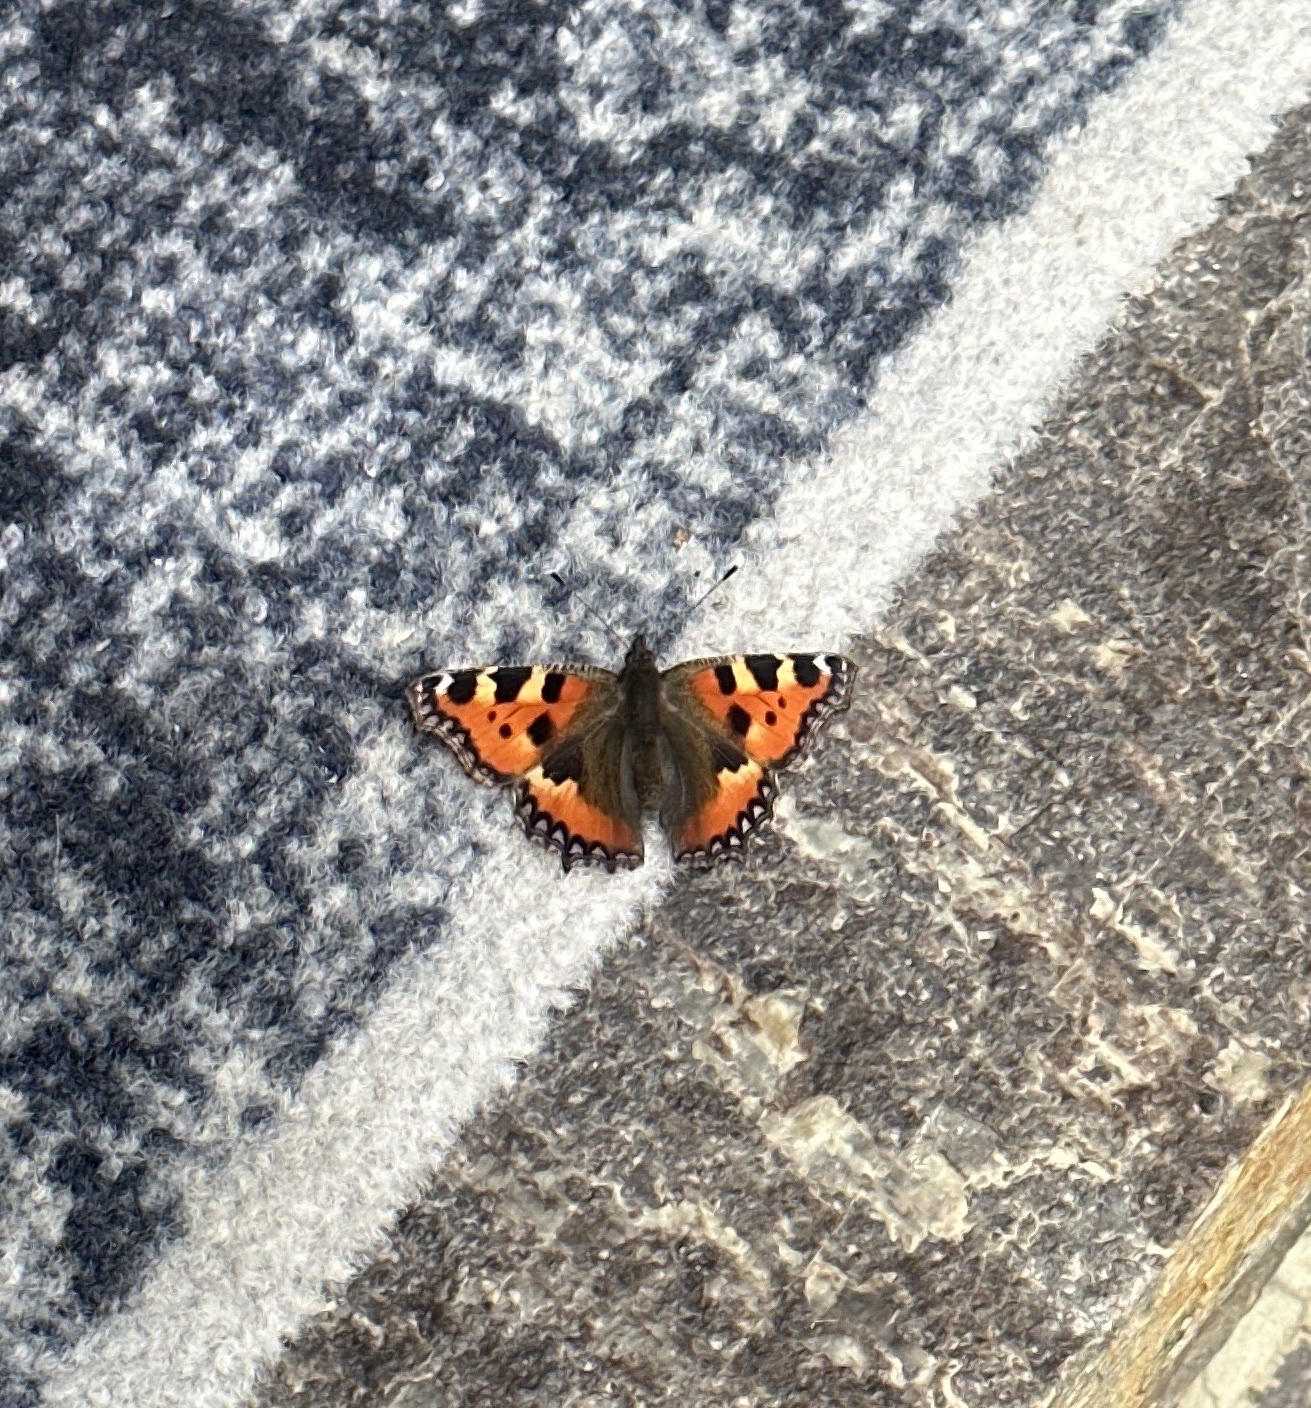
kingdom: Animalia
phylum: Arthropoda
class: Insecta
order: Lepidoptera
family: Nymphalidae
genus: Aglais
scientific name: Aglais urticae
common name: Small tortoiseshell
